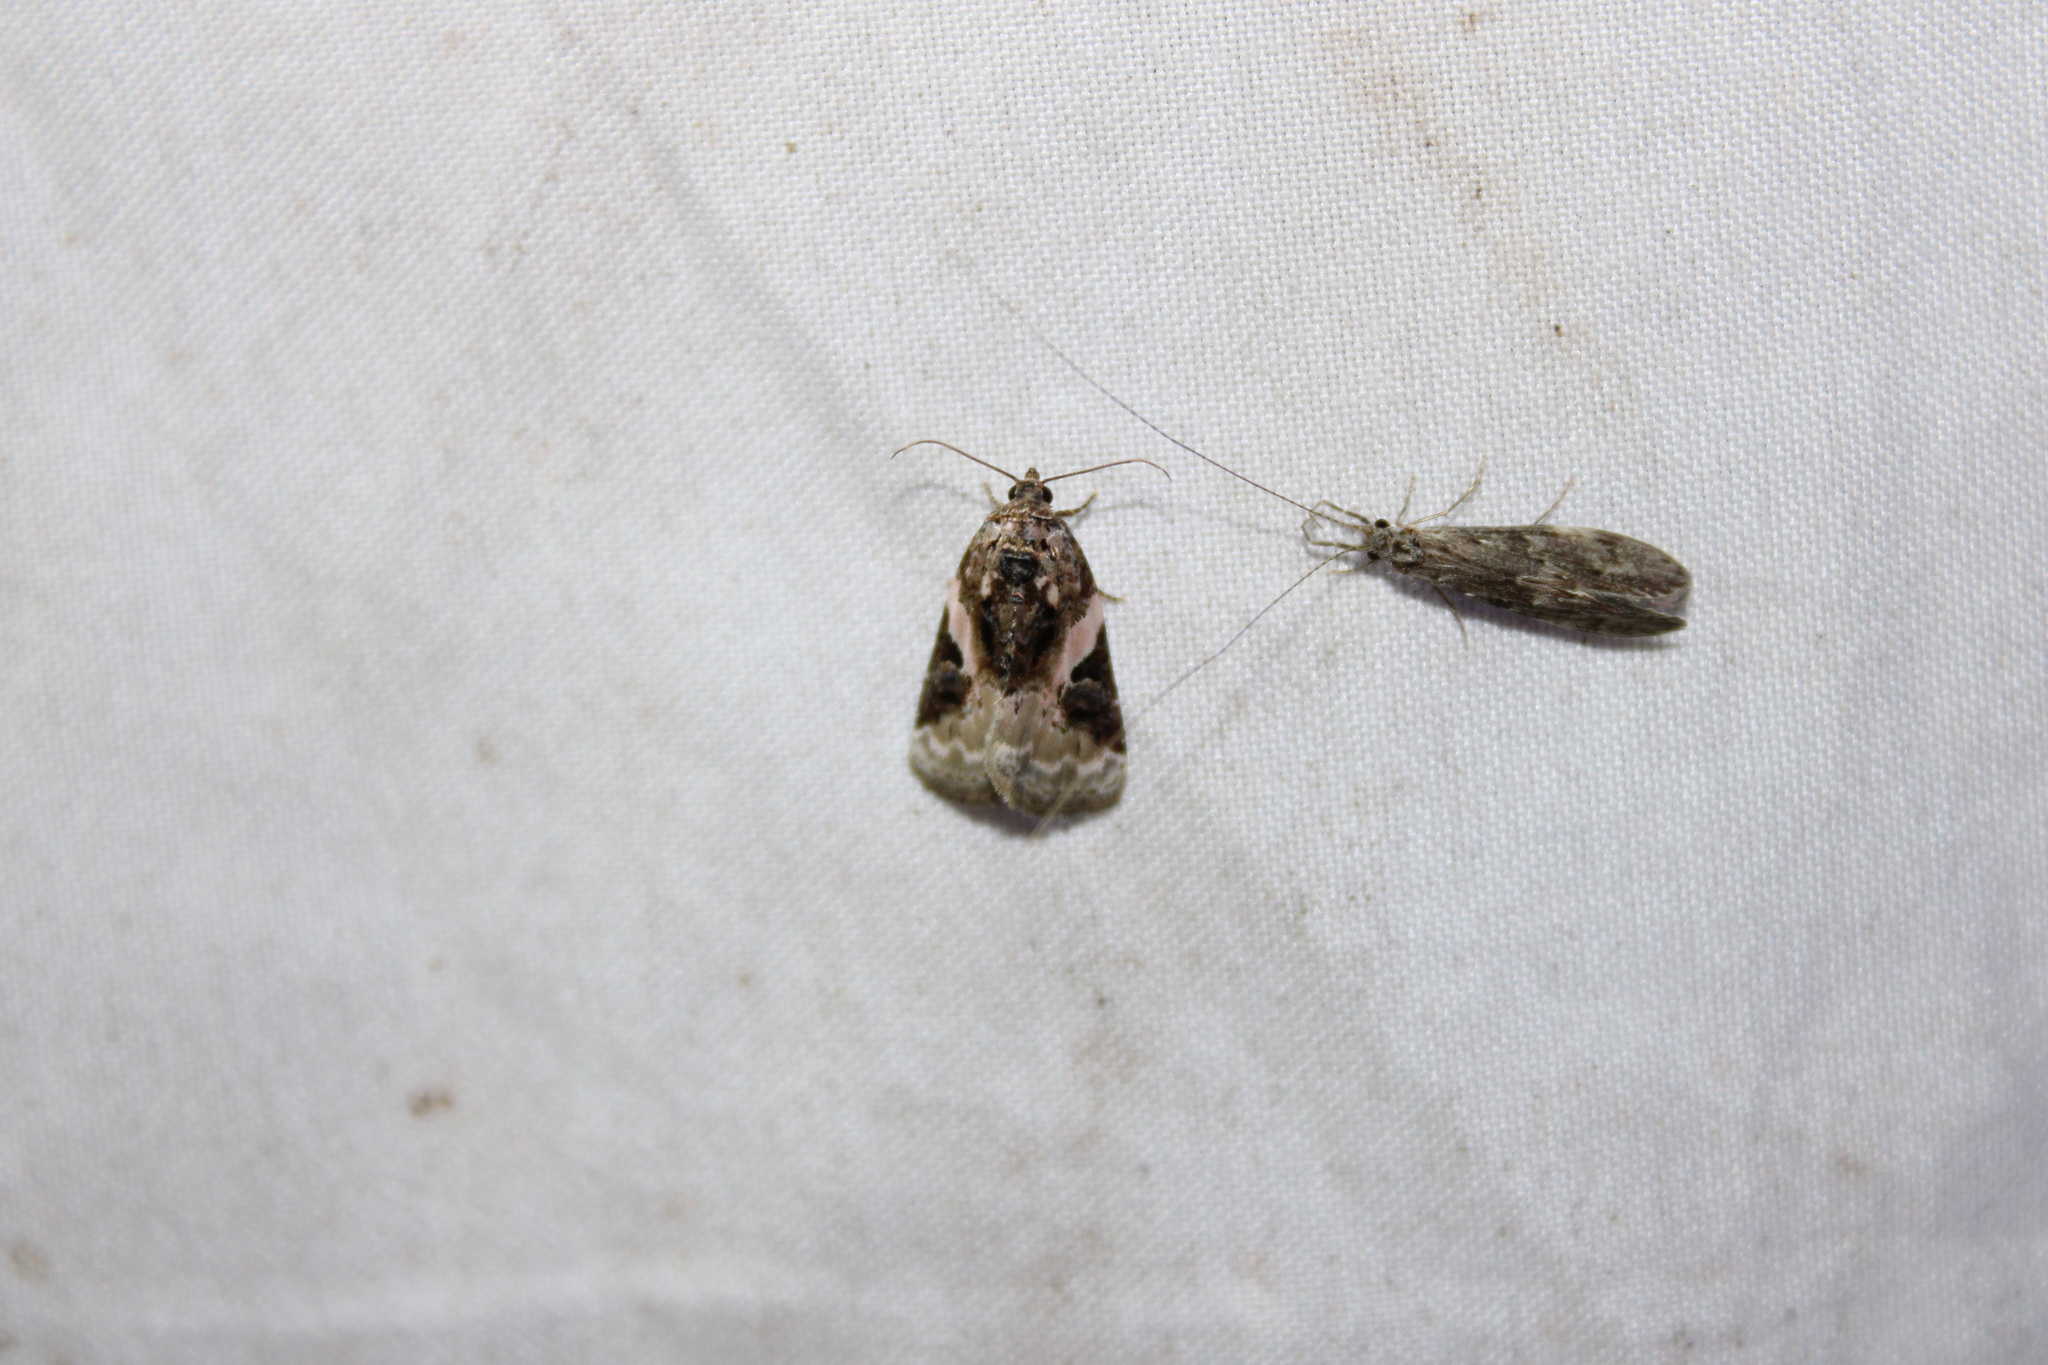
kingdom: Animalia
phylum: Arthropoda
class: Insecta
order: Lepidoptera
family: Noctuidae
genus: Pseudeustrotia
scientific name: Pseudeustrotia carneola
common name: Pink-barred lithacodia moth
